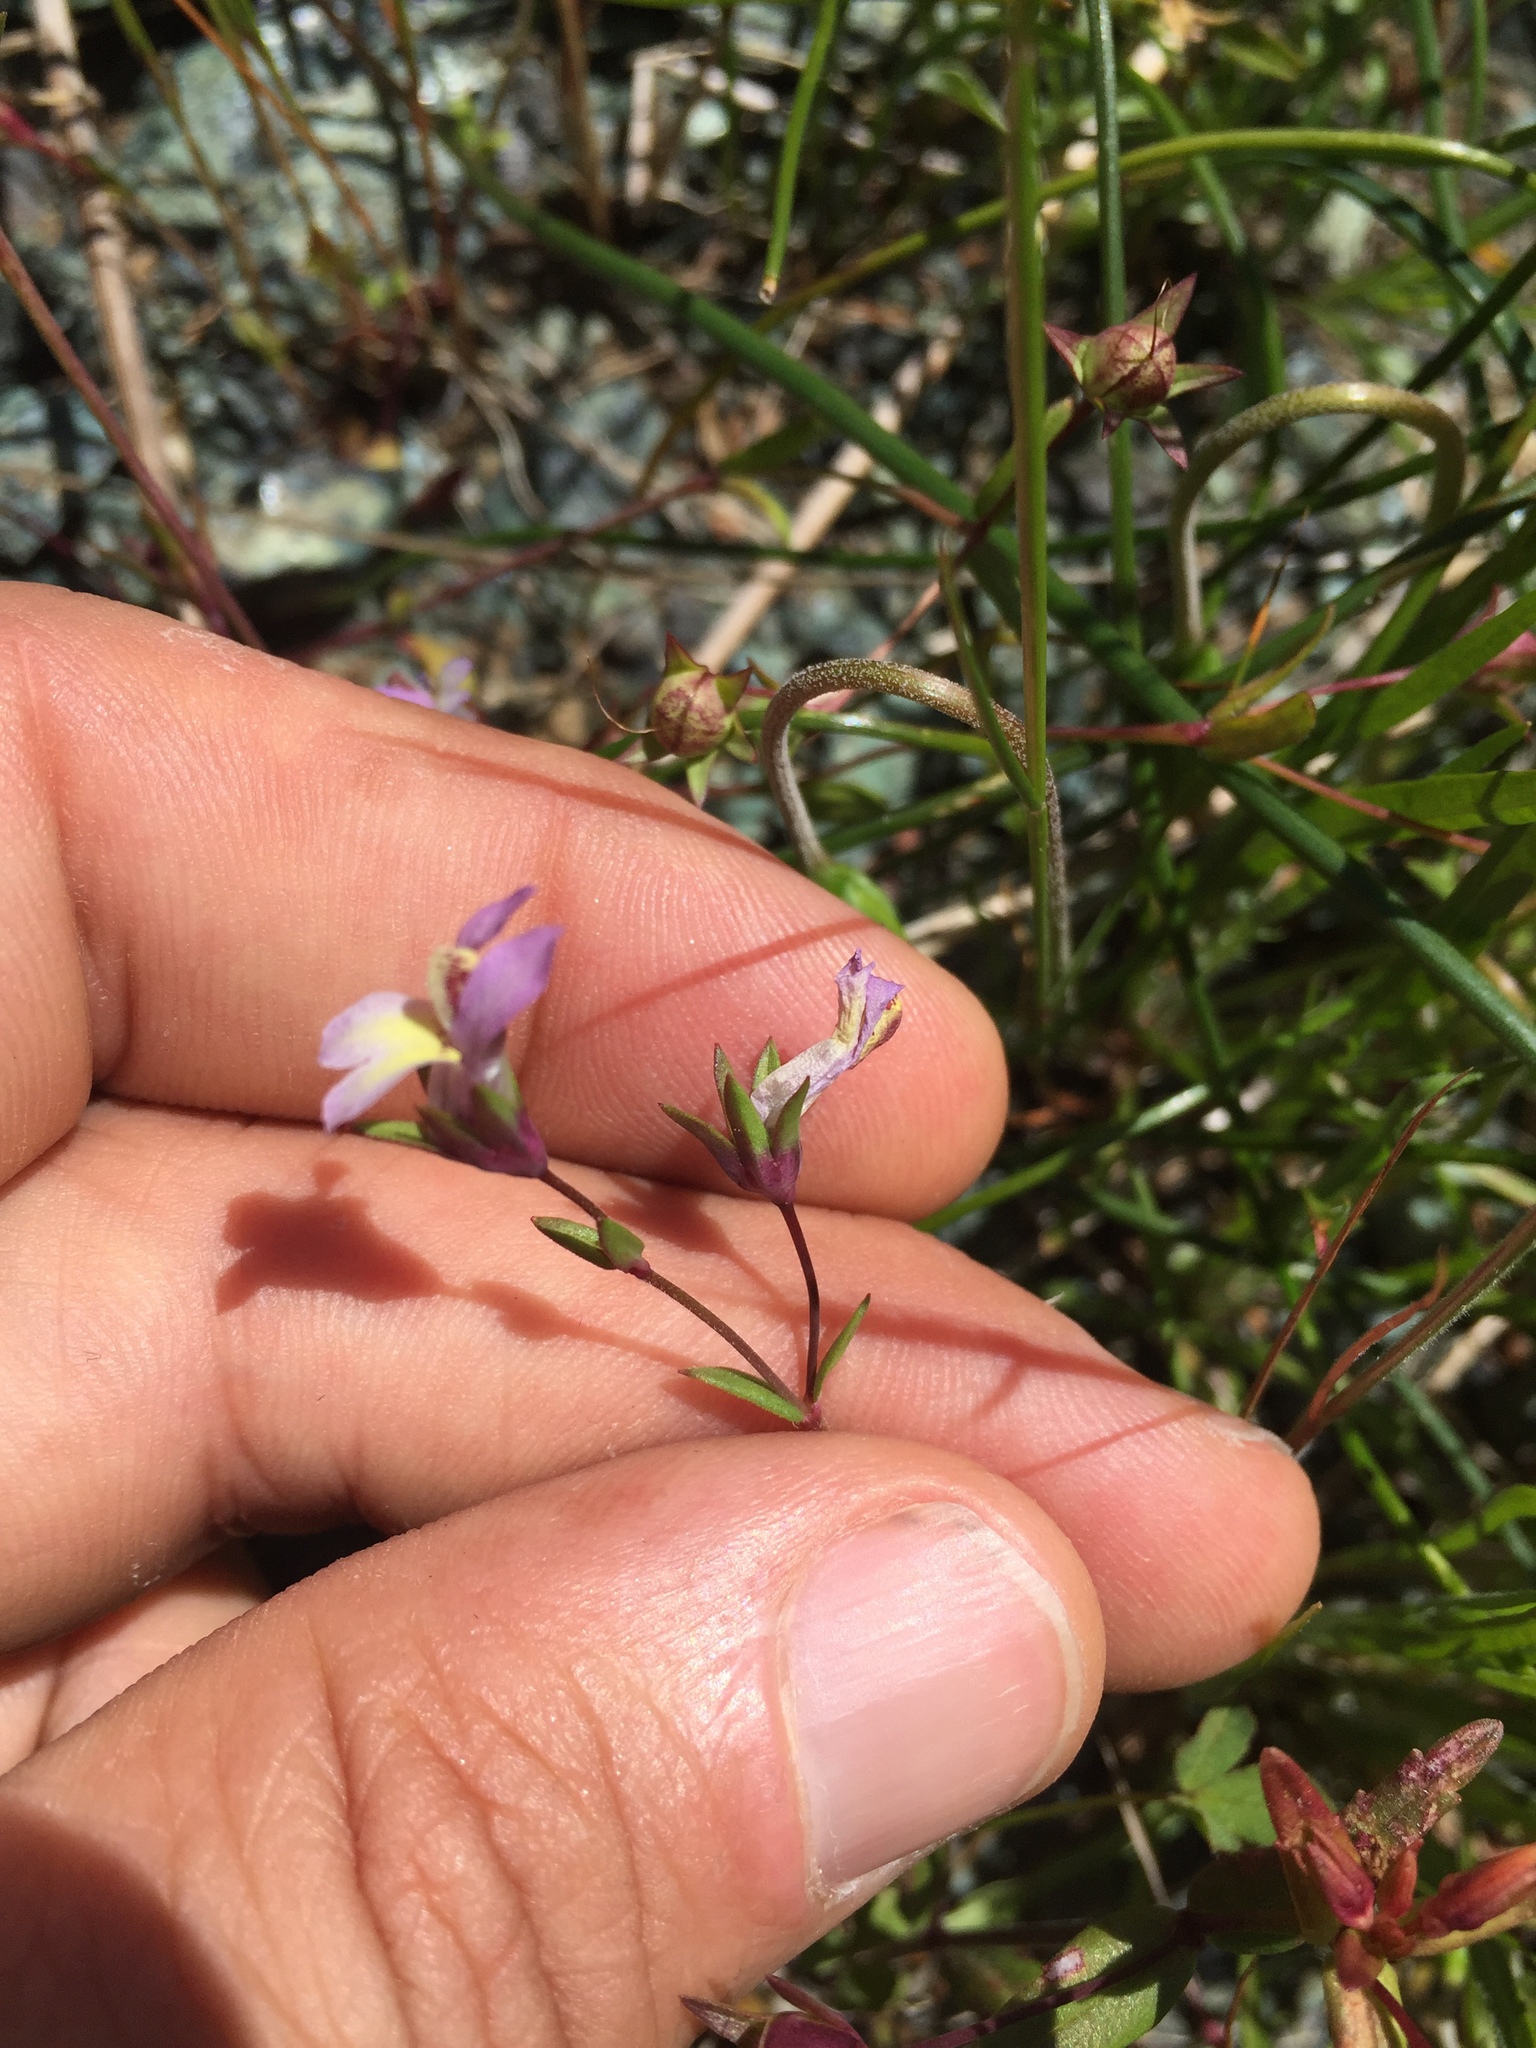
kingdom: Plantae
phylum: Tracheophyta
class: Magnoliopsida
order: Lamiales
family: Plantaginaceae
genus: Collinsia
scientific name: Collinsia sparsiflora
